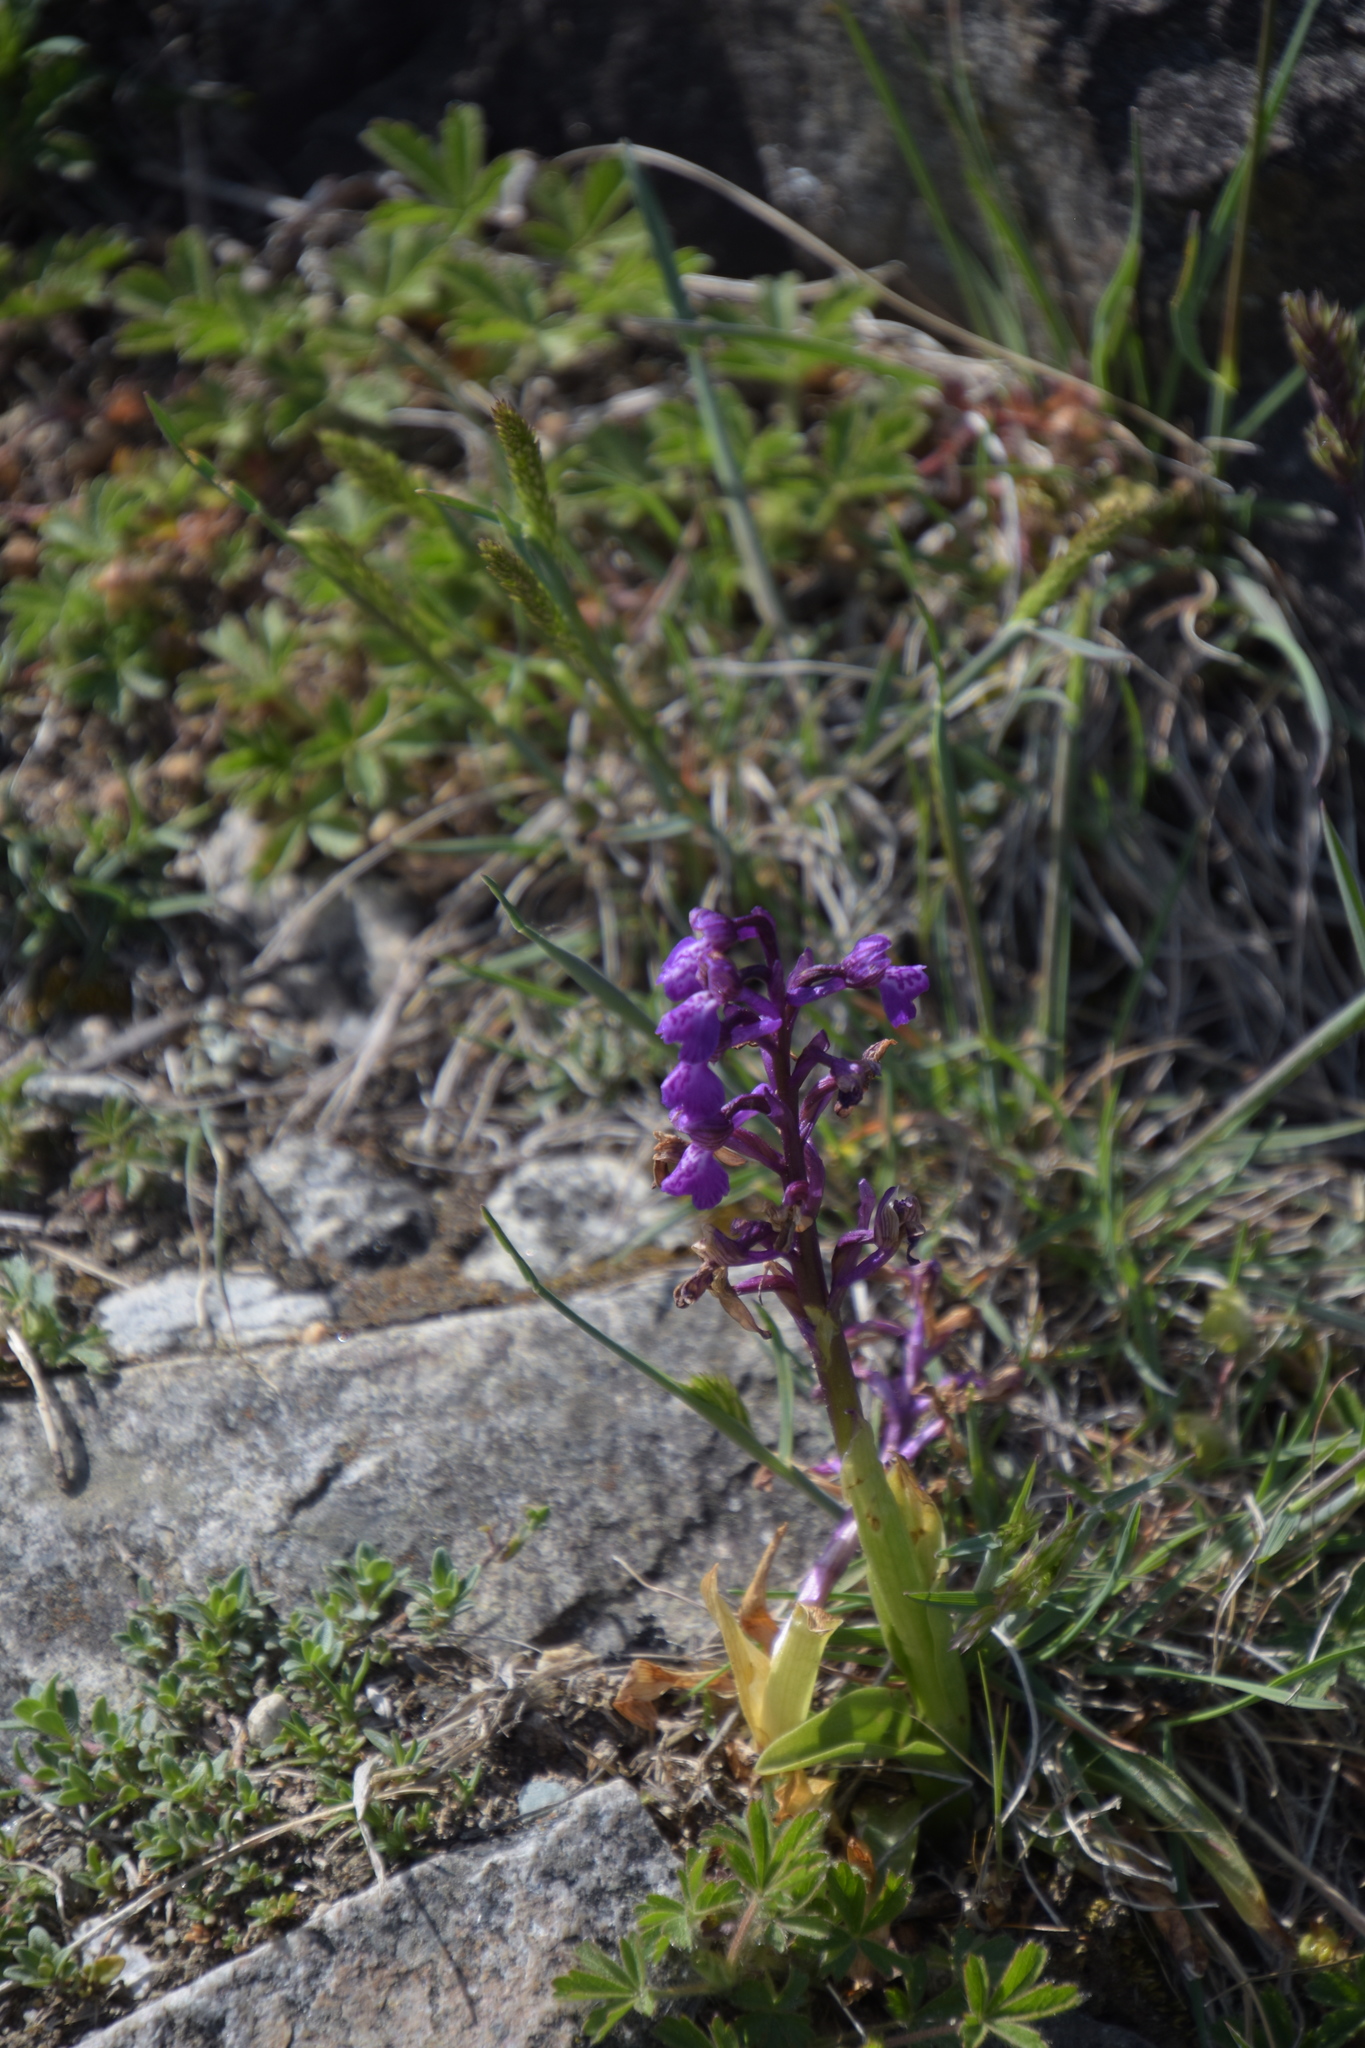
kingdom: Plantae
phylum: Tracheophyta
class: Liliopsida
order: Asparagales
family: Orchidaceae
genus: Anacamptis
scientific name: Anacamptis morio
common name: Green-winged orchid
